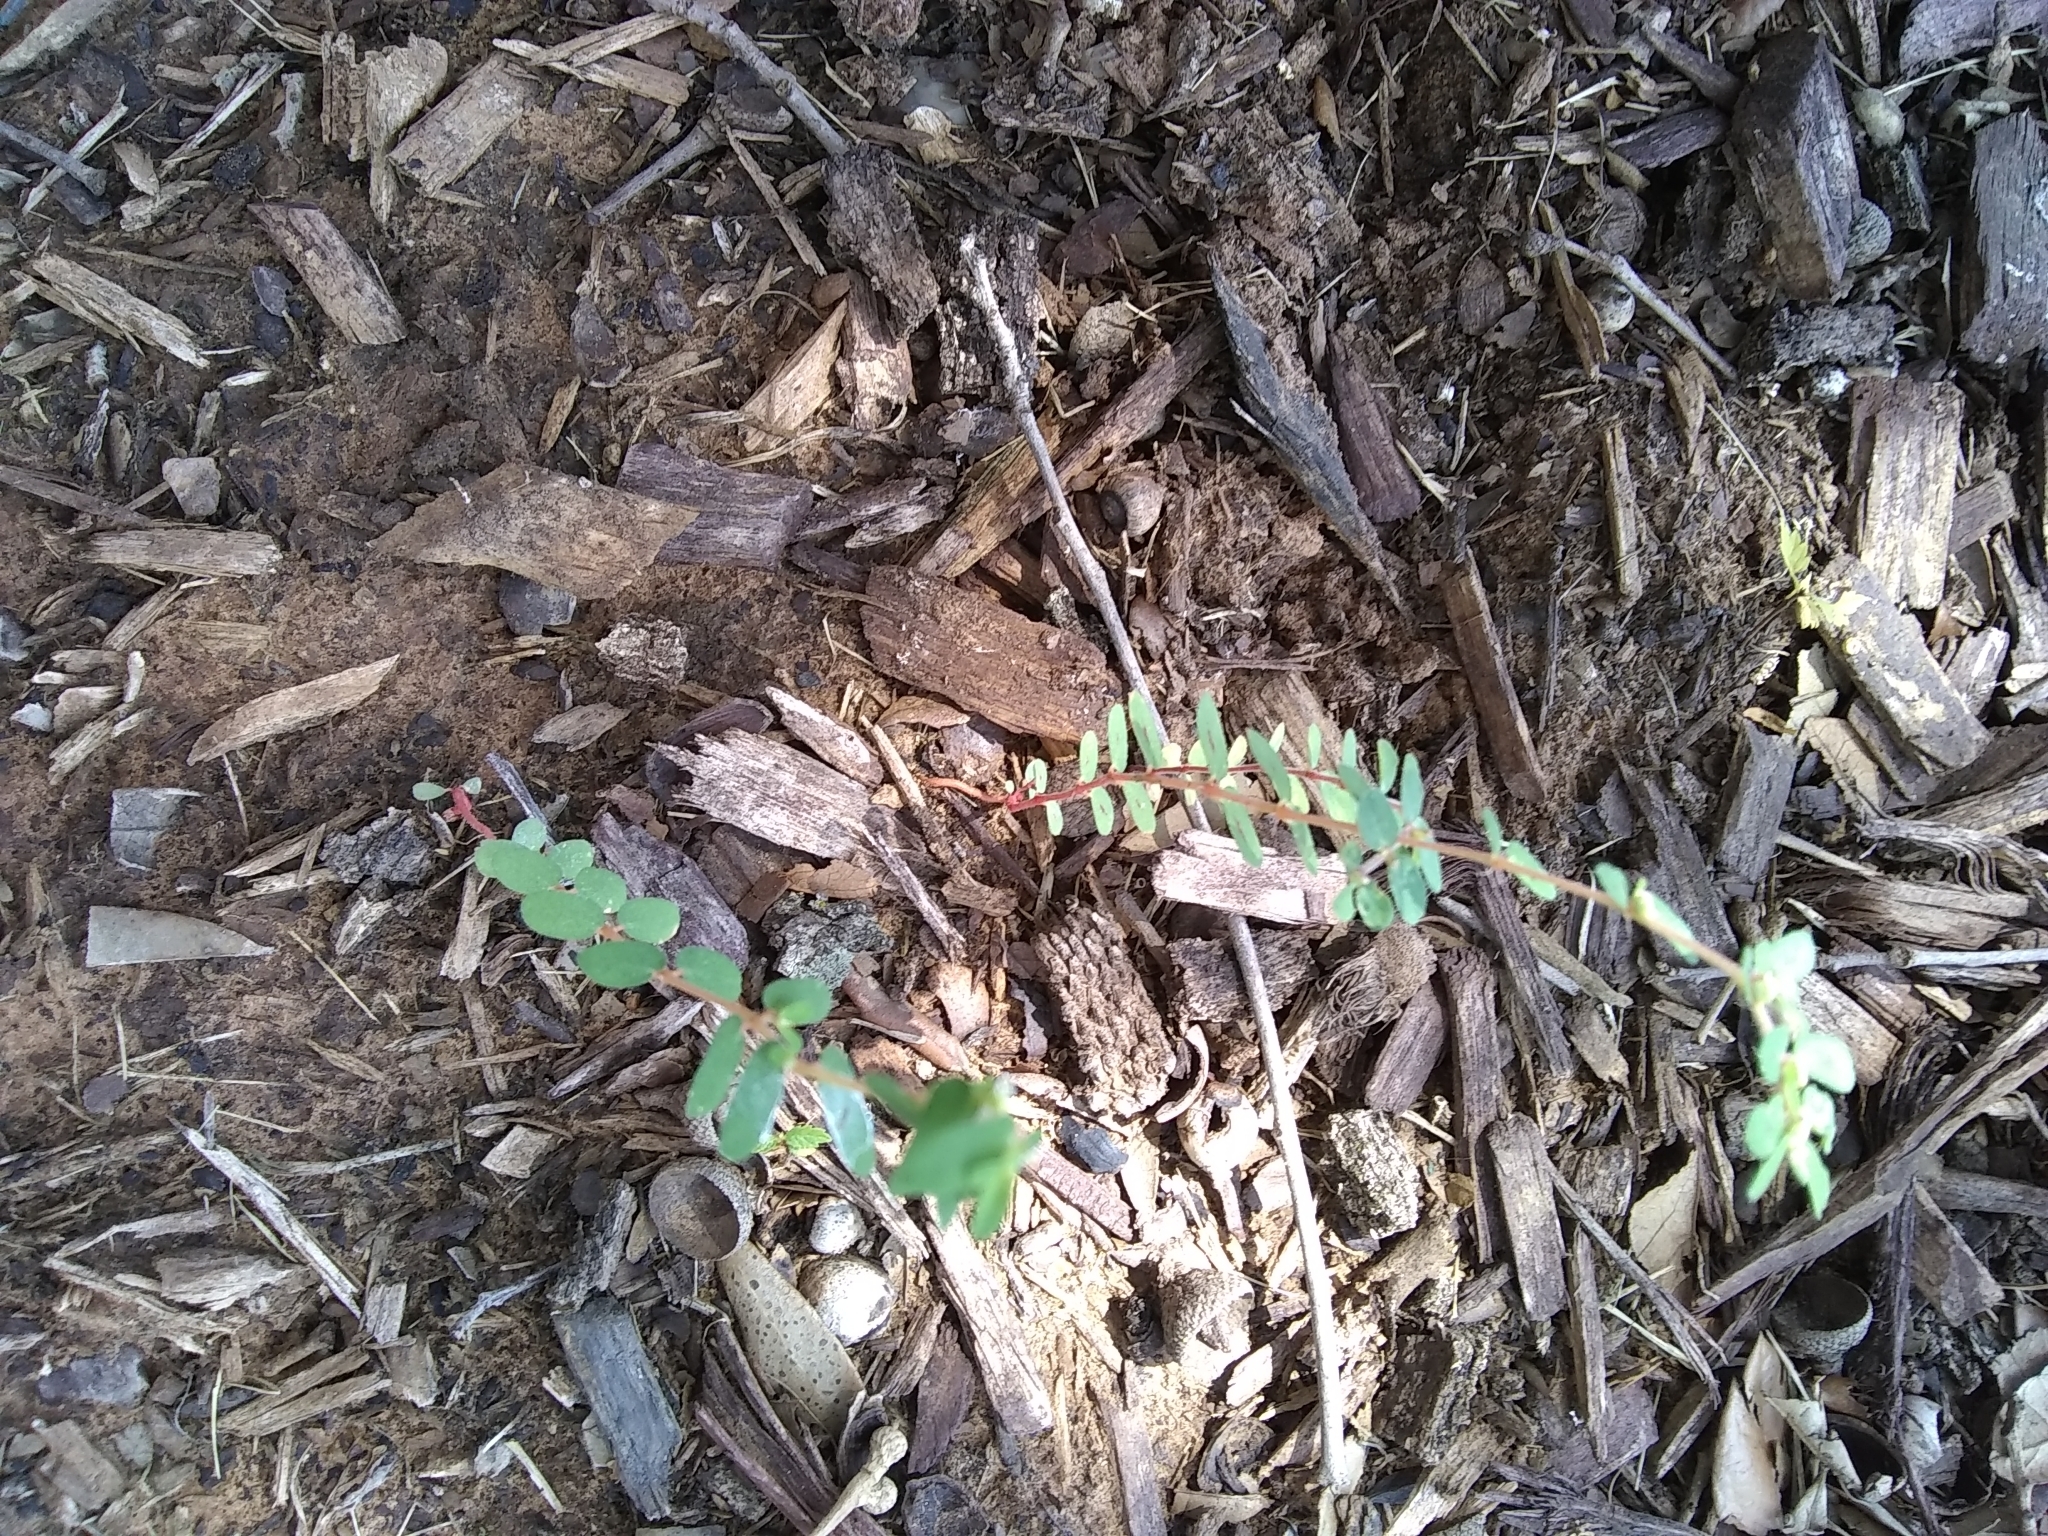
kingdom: Plantae
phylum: Tracheophyta
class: Magnoliopsida
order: Malpighiales
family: Euphorbiaceae
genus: Euphorbia
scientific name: Euphorbia maculata
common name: Spotted spurge
